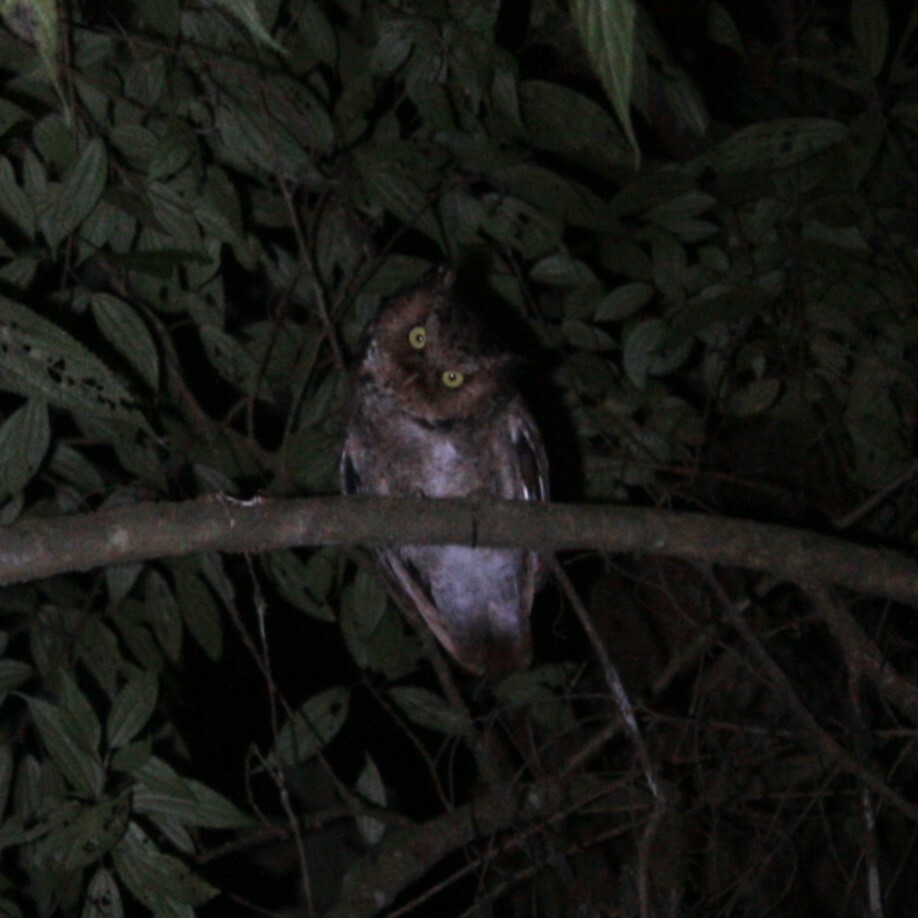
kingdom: Animalia
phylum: Chordata
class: Aves
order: Strigiformes
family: Strigidae
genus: Otus
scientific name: Otus spilocephalus
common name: Mountain scops owl
